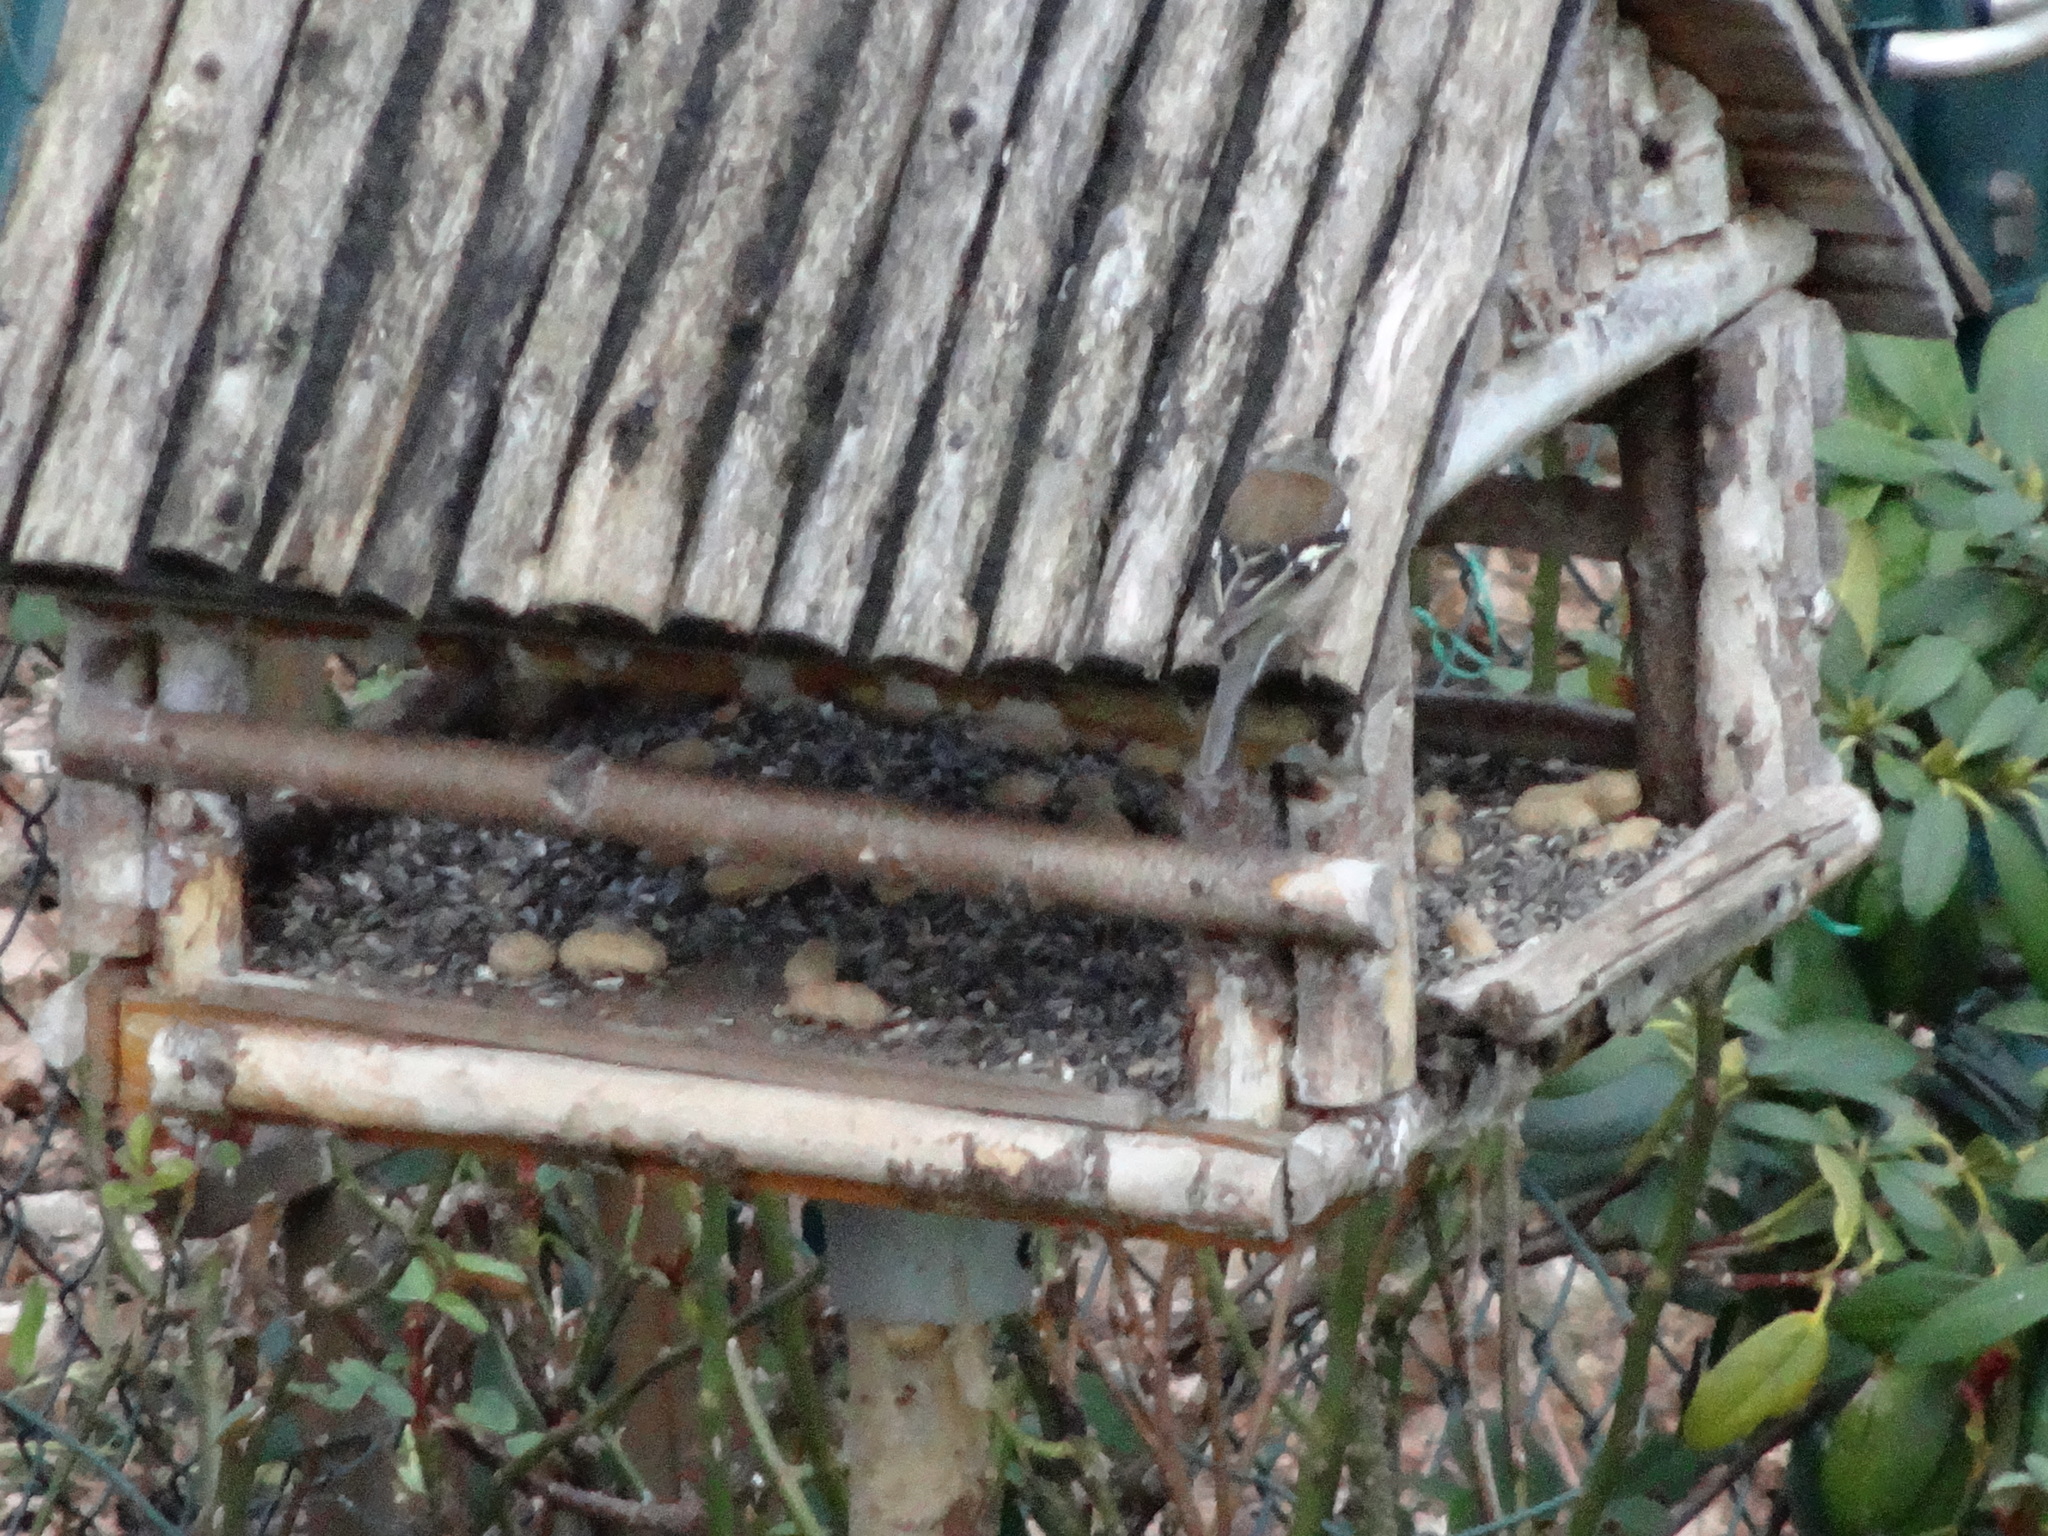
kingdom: Animalia
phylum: Chordata
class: Aves
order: Passeriformes
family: Fringillidae
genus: Fringilla
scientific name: Fringilla coelebs
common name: Common chaffinch
